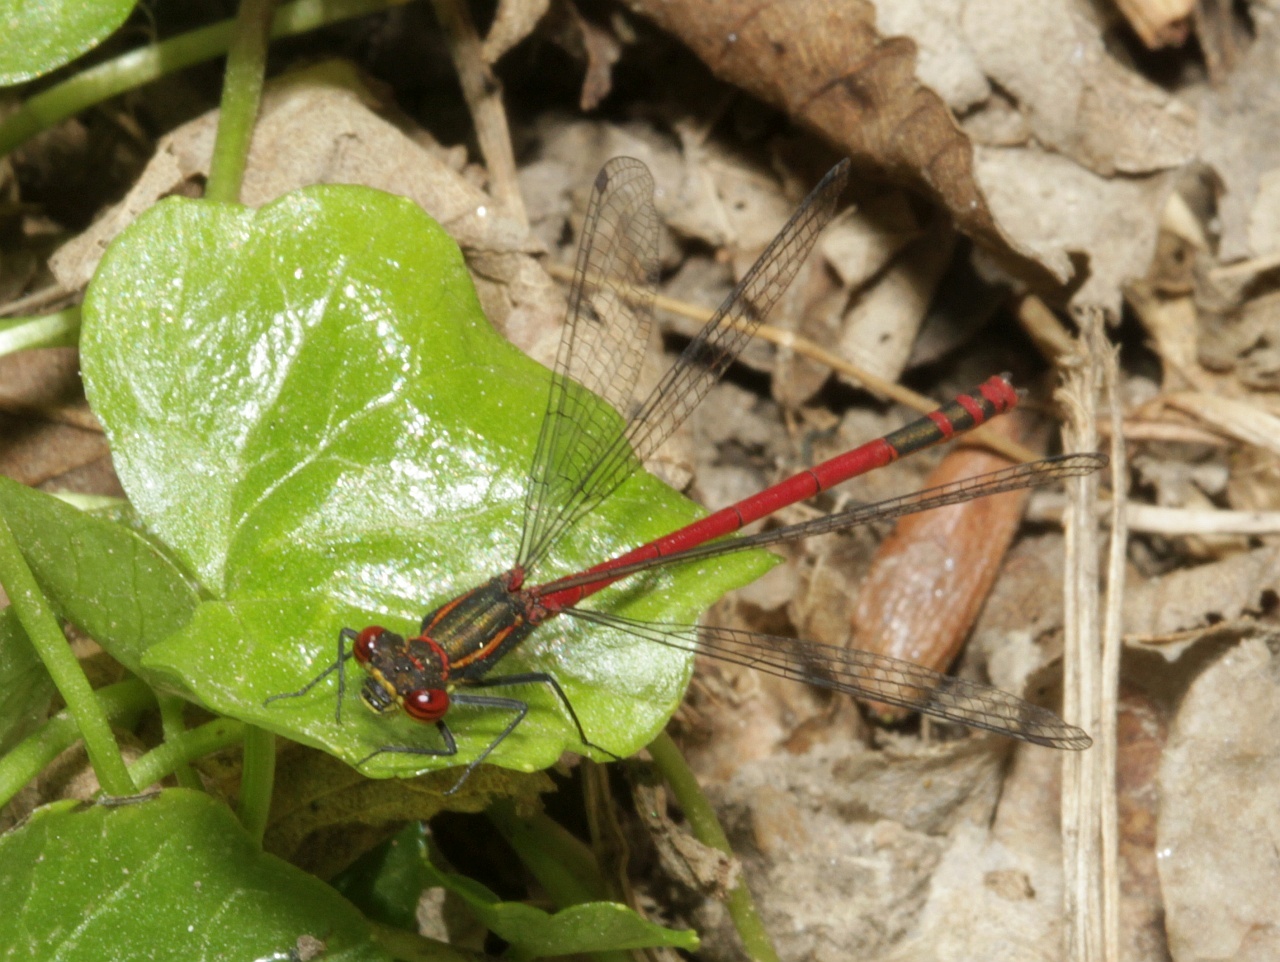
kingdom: Animalia
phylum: Arthropoda
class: Insecta
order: Odonata
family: Coenagrionidae
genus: Pyrrhosoma
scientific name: Pyrrhosoma nymphula
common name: Large red damsel
